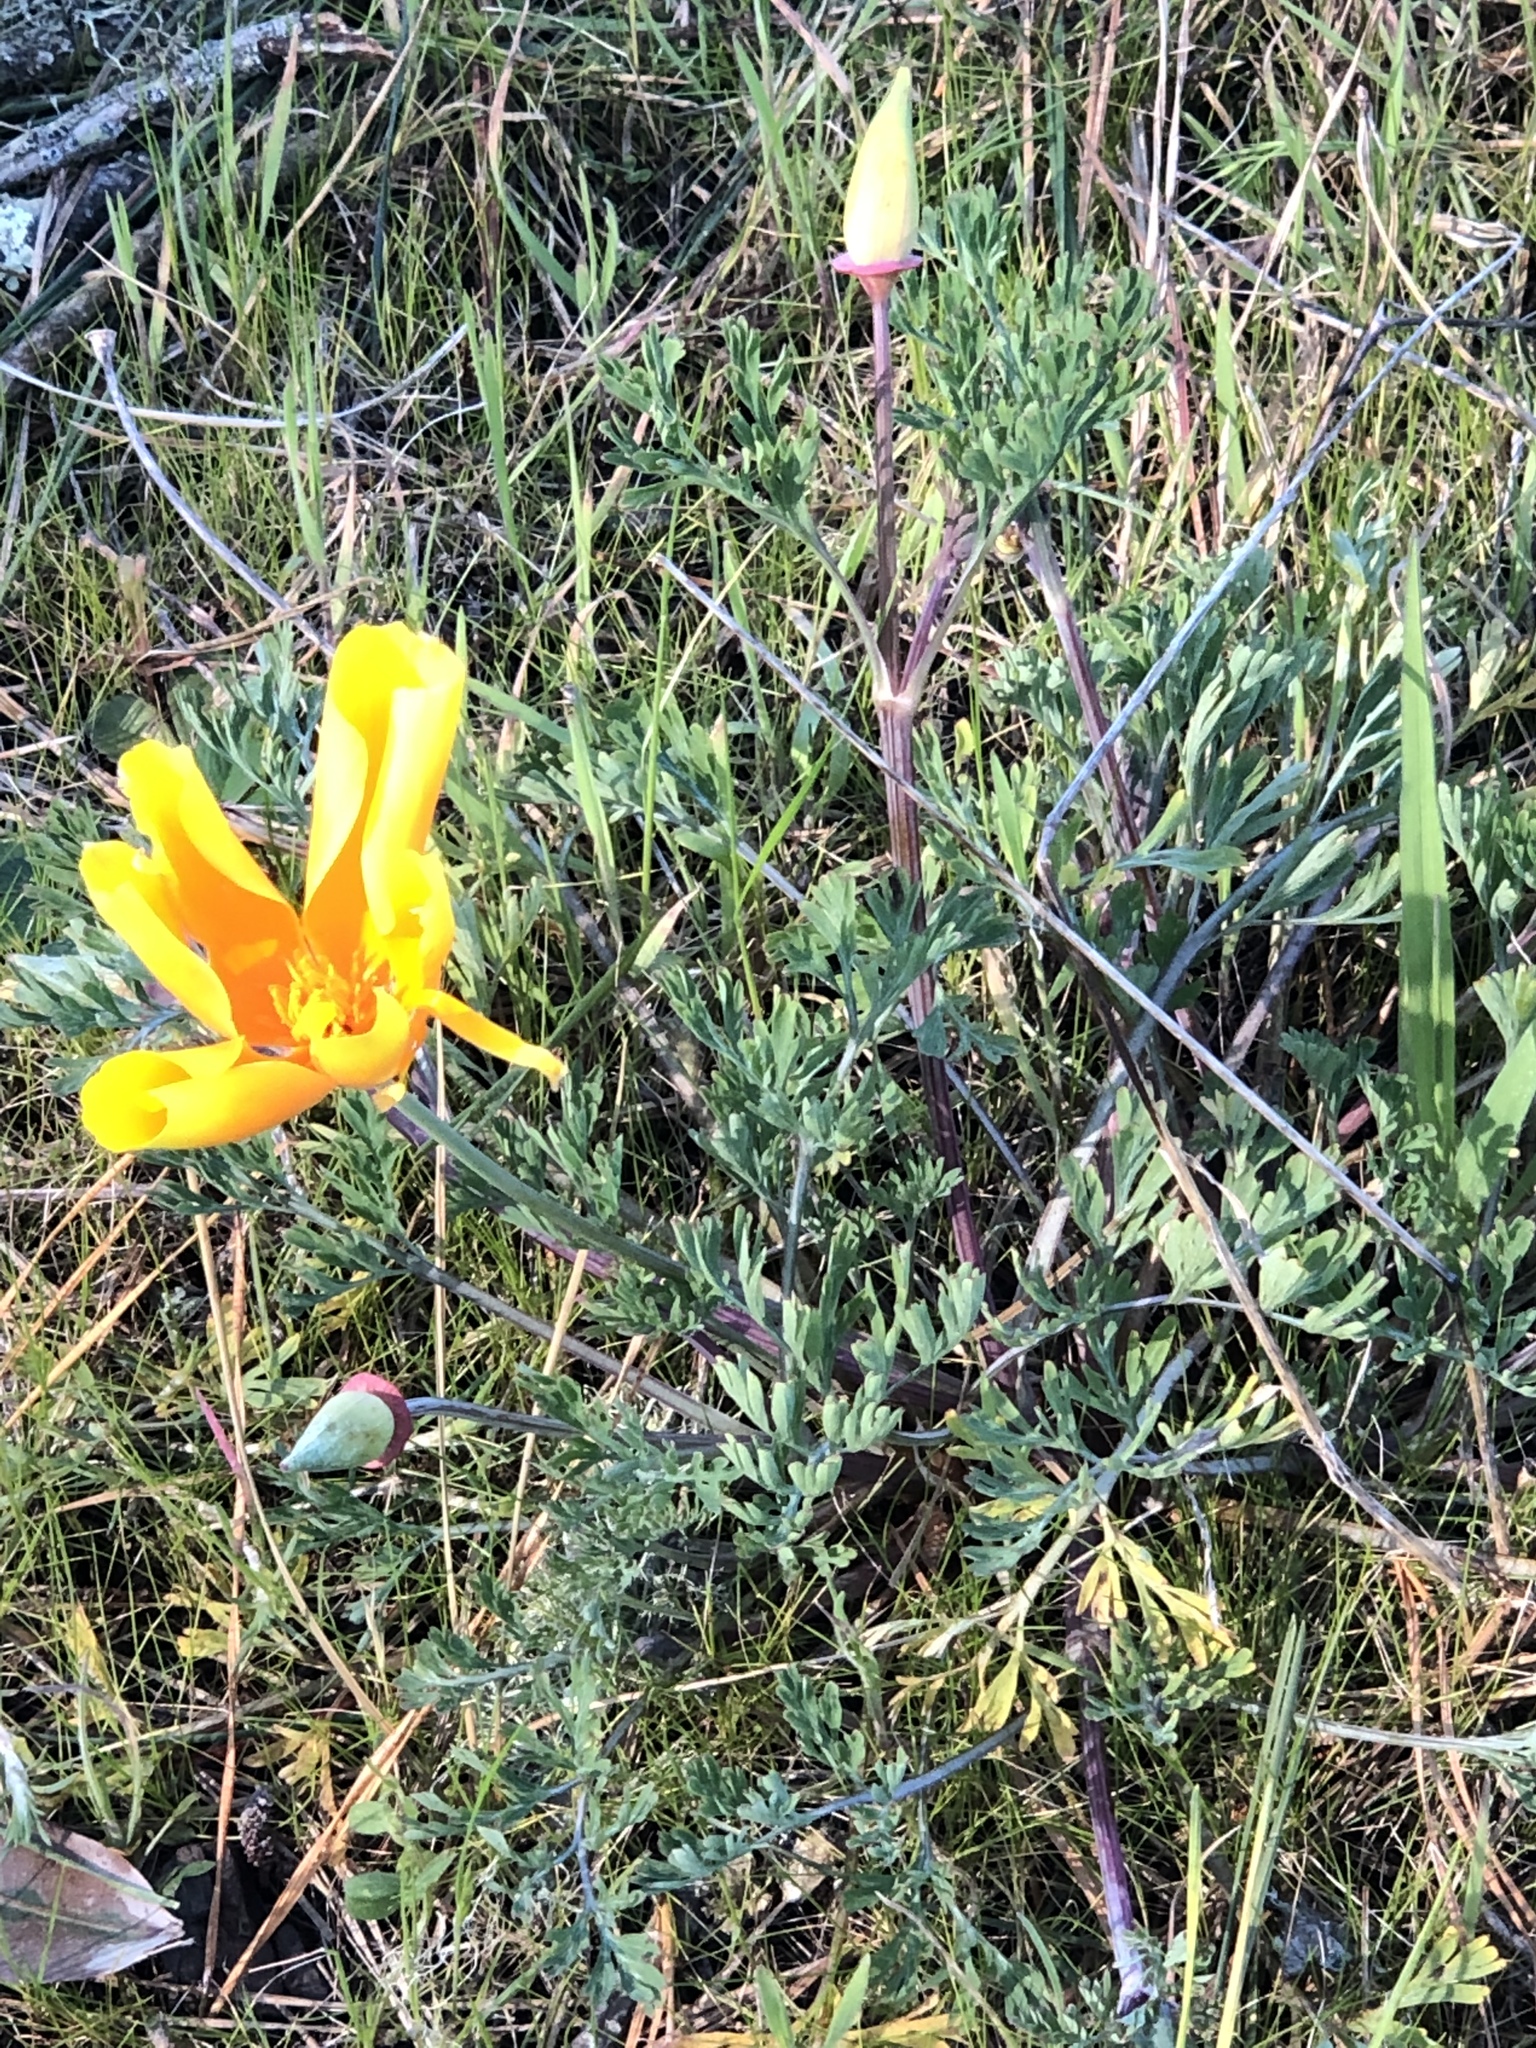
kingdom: Plantae
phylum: Tracheophyta
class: Magnoliopsida
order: Ranunculales
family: Papaveraceae
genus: Eschscholzia
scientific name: Eschscholzia californica
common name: California poppy
